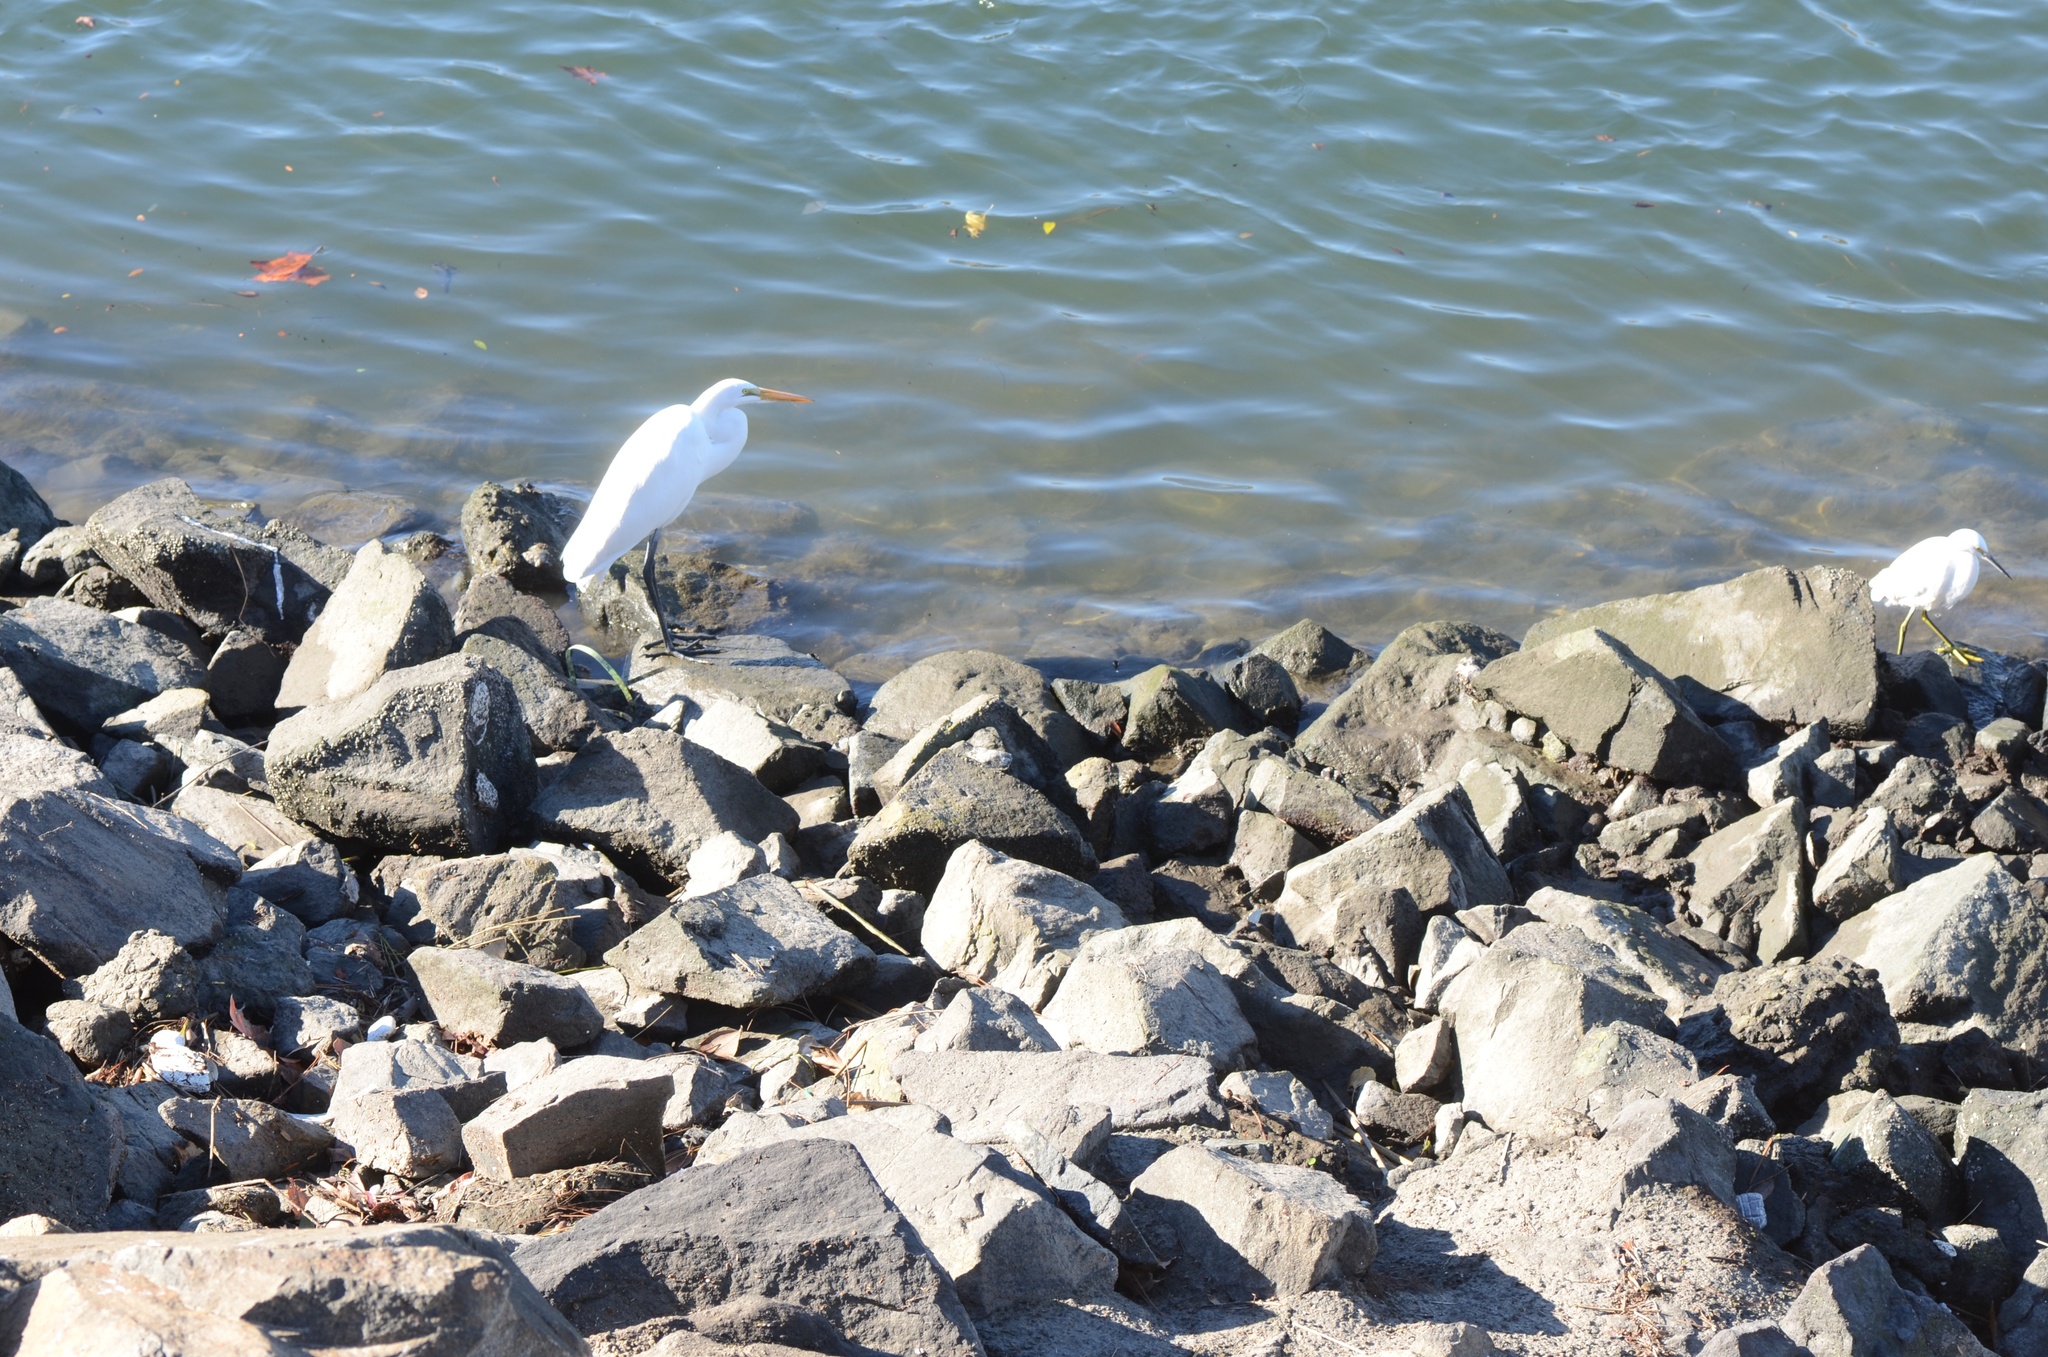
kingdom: Animalia
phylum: Chordata
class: Aves
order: Pelecaniformes
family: Ardeidae
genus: Ardea
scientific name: Ardea alba
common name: Great egret
